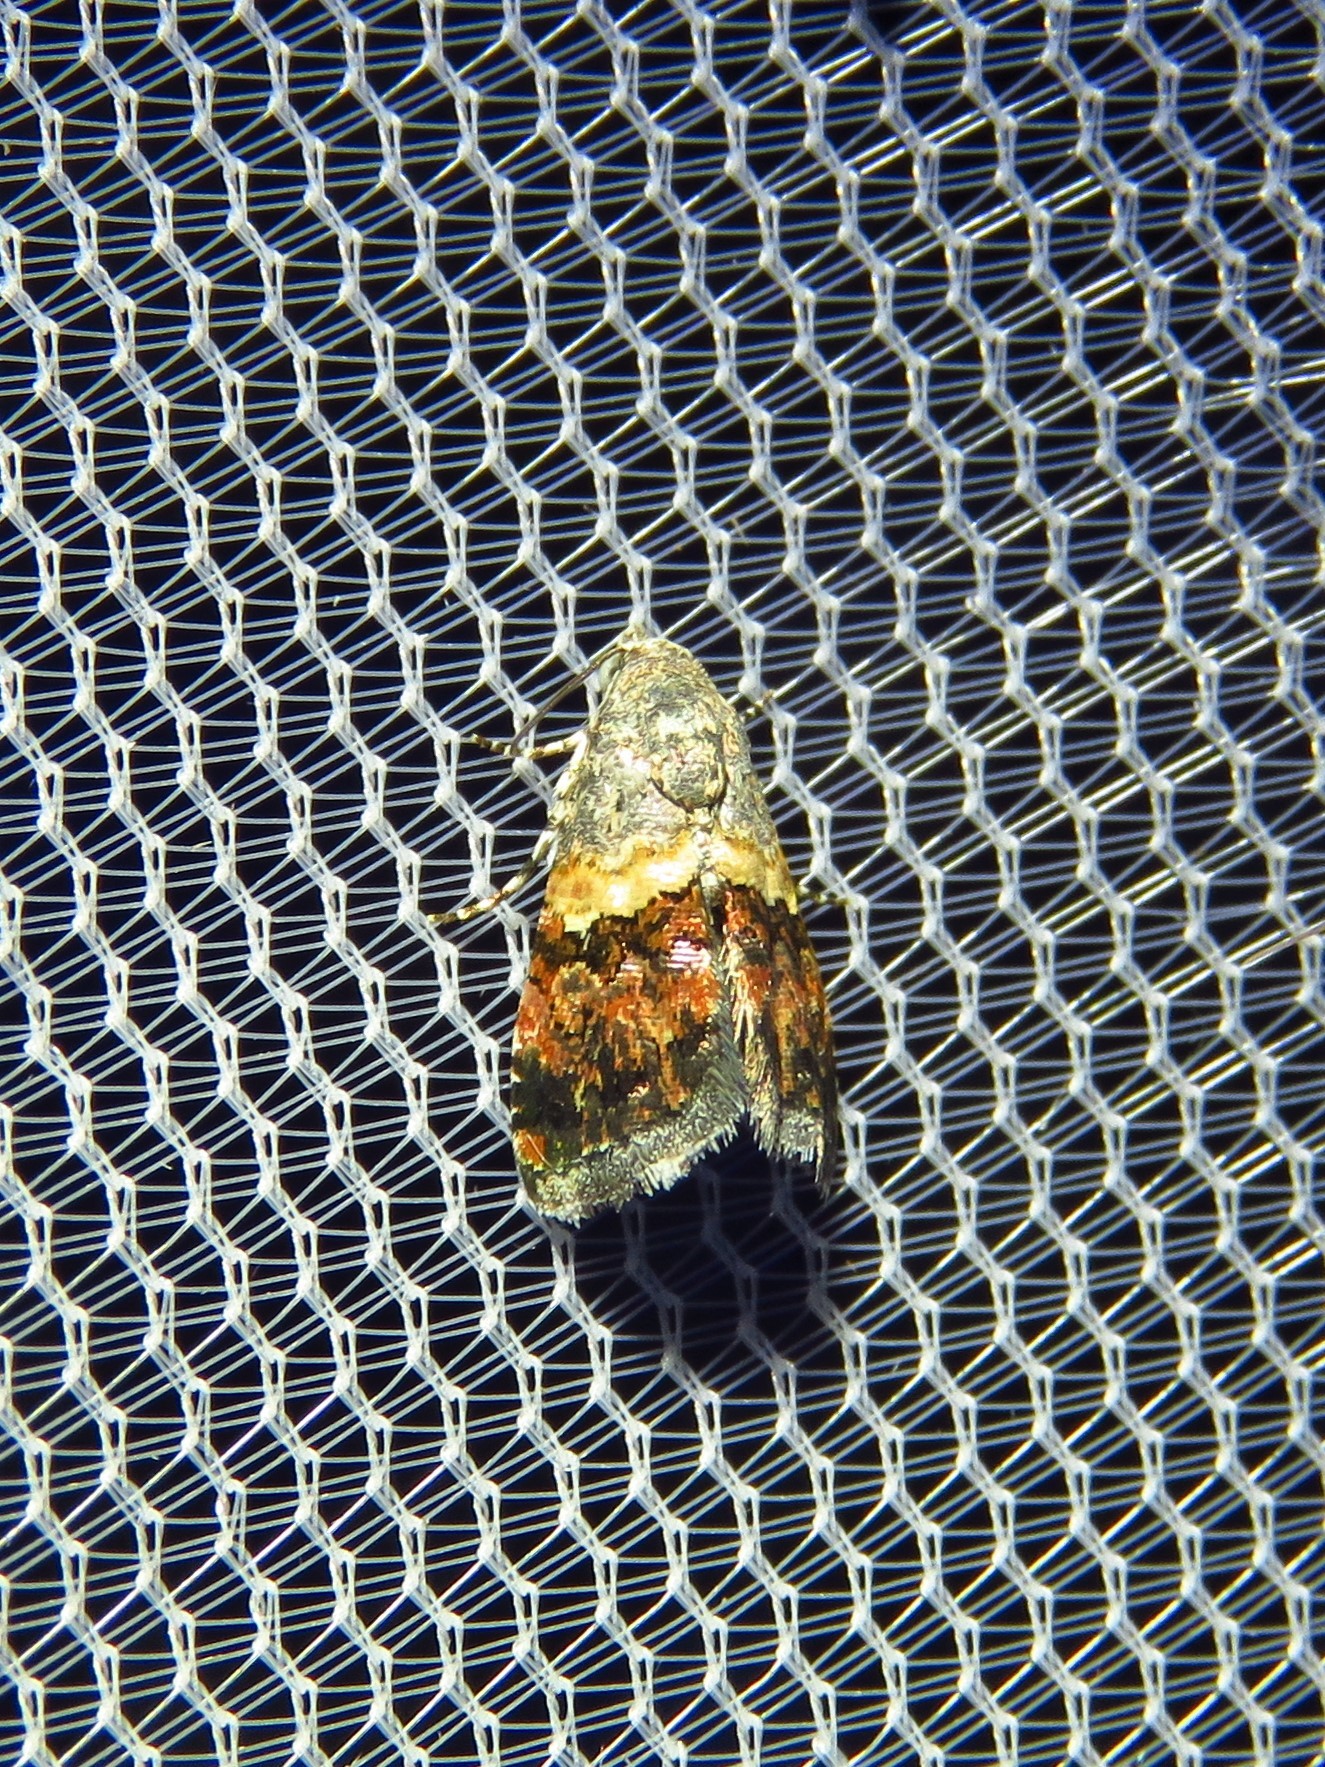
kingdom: Animalia
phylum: Arthropoda
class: Insecta
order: Lepidoptera
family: Noctuidae
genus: Tripudia
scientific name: Tripudia luxuriosa
